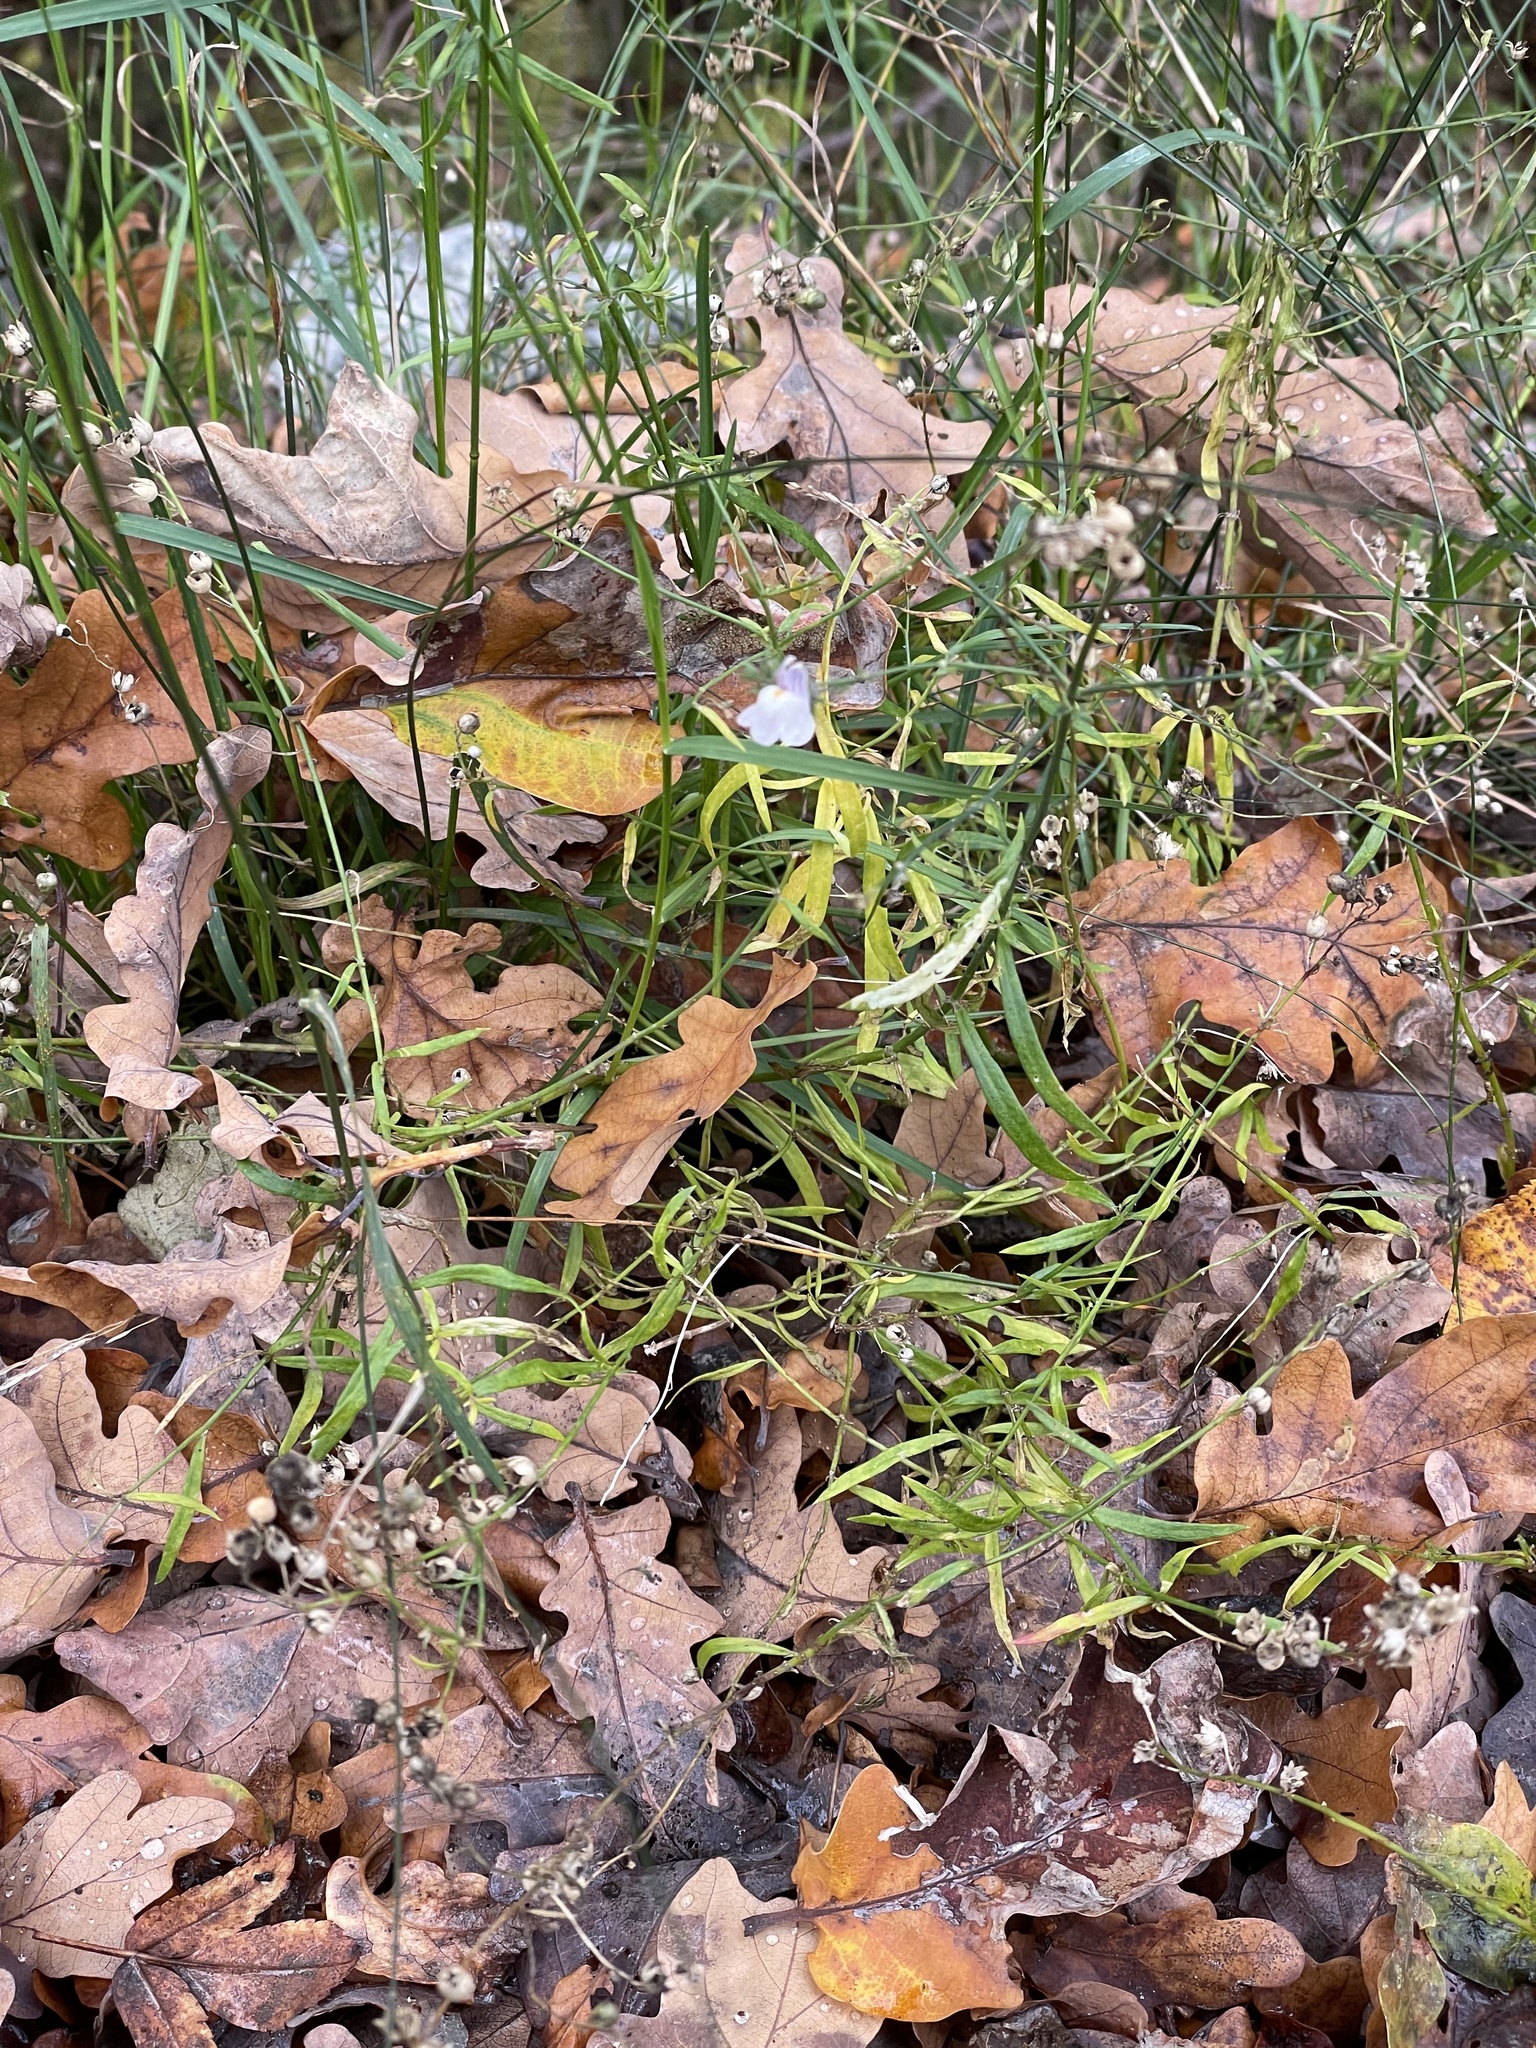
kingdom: Plantae
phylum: Tracheophyta
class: Magnoliopsida
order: Lamiales
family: Plantaginaceae
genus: Linaria
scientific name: Linaria repens
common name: Pale toadflax
